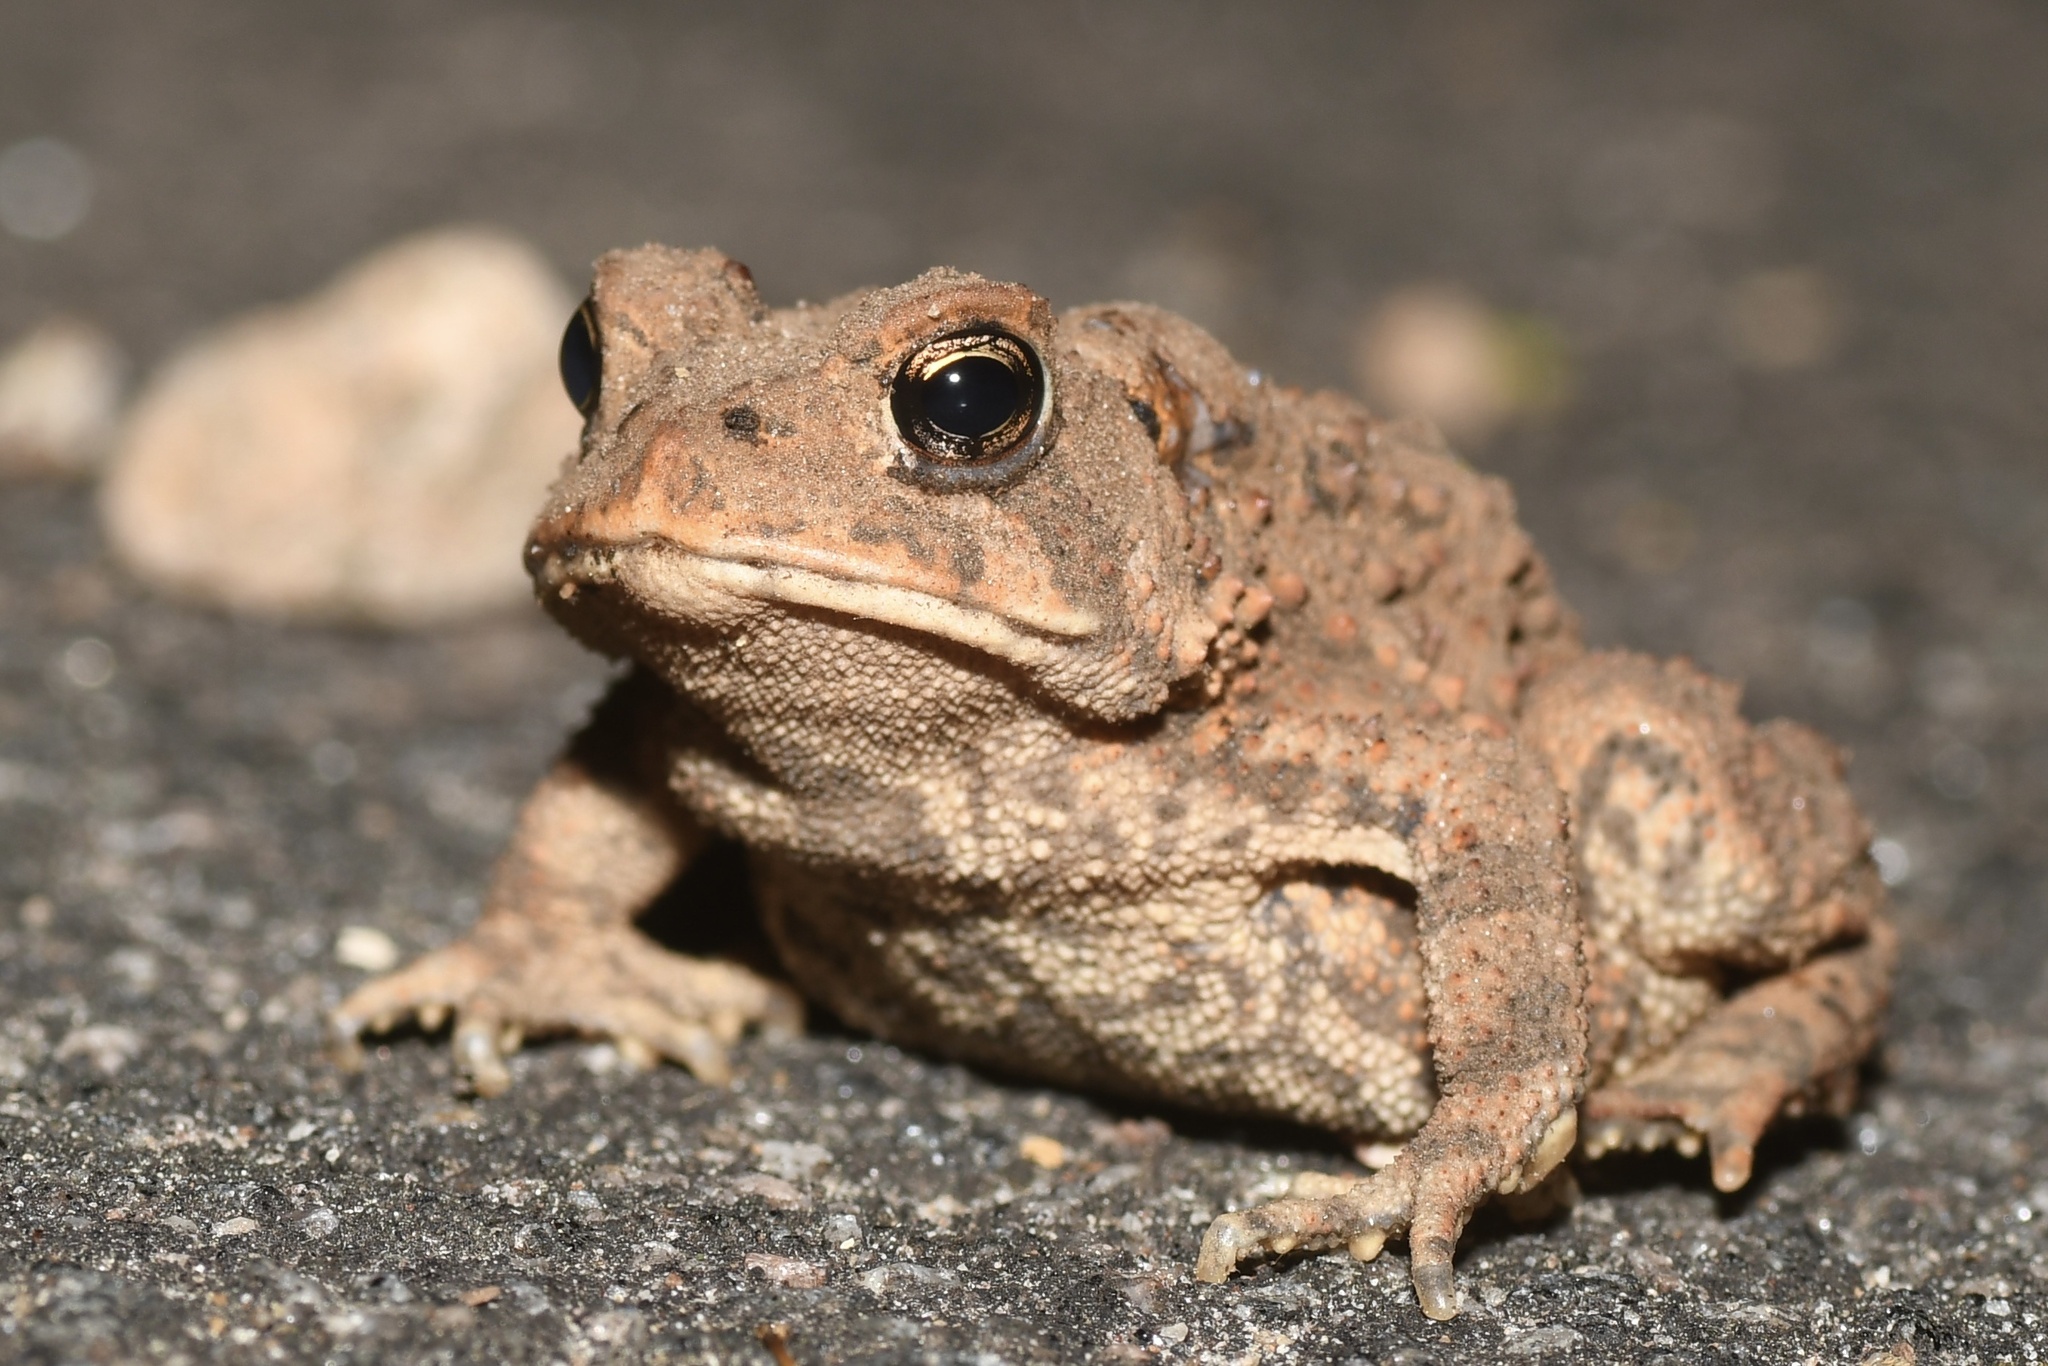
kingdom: Animalia
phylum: Chordata
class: Amphibia
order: Anura
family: Bufonidae
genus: Anaxyrus
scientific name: Anaxyrus americanus
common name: American toad
